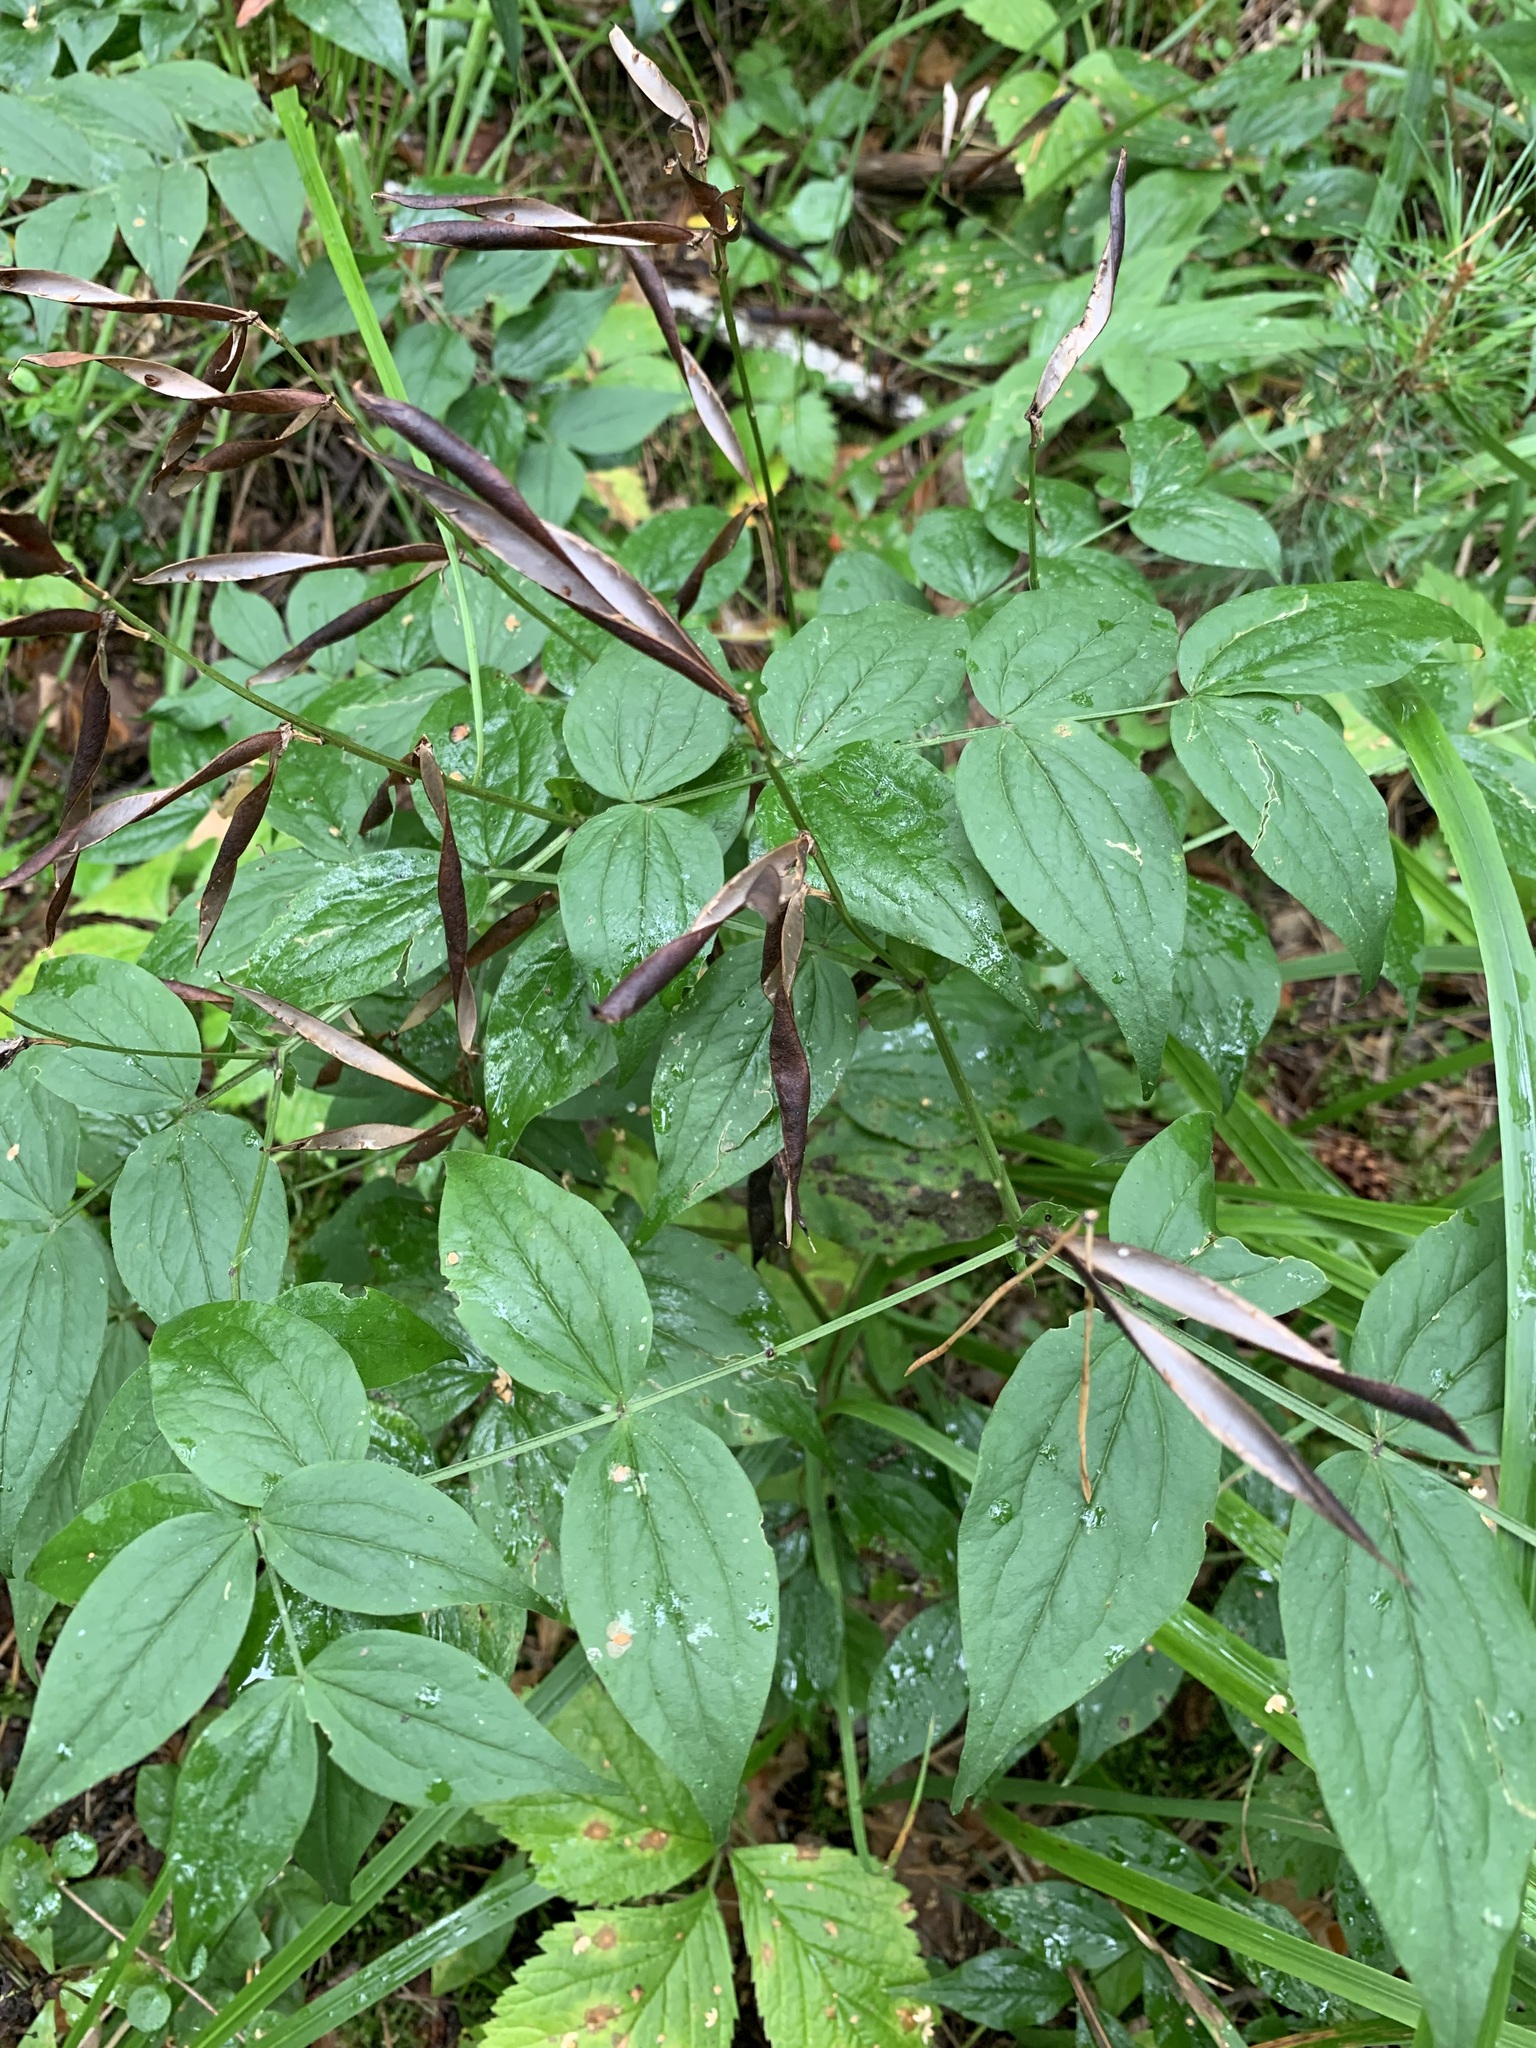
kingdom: Plantae
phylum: Tracheophyta
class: Magnoliopsida
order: Fabales
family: Fabaceae
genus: Lathyrus
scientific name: Lathyrus vernus
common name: Spring pea
